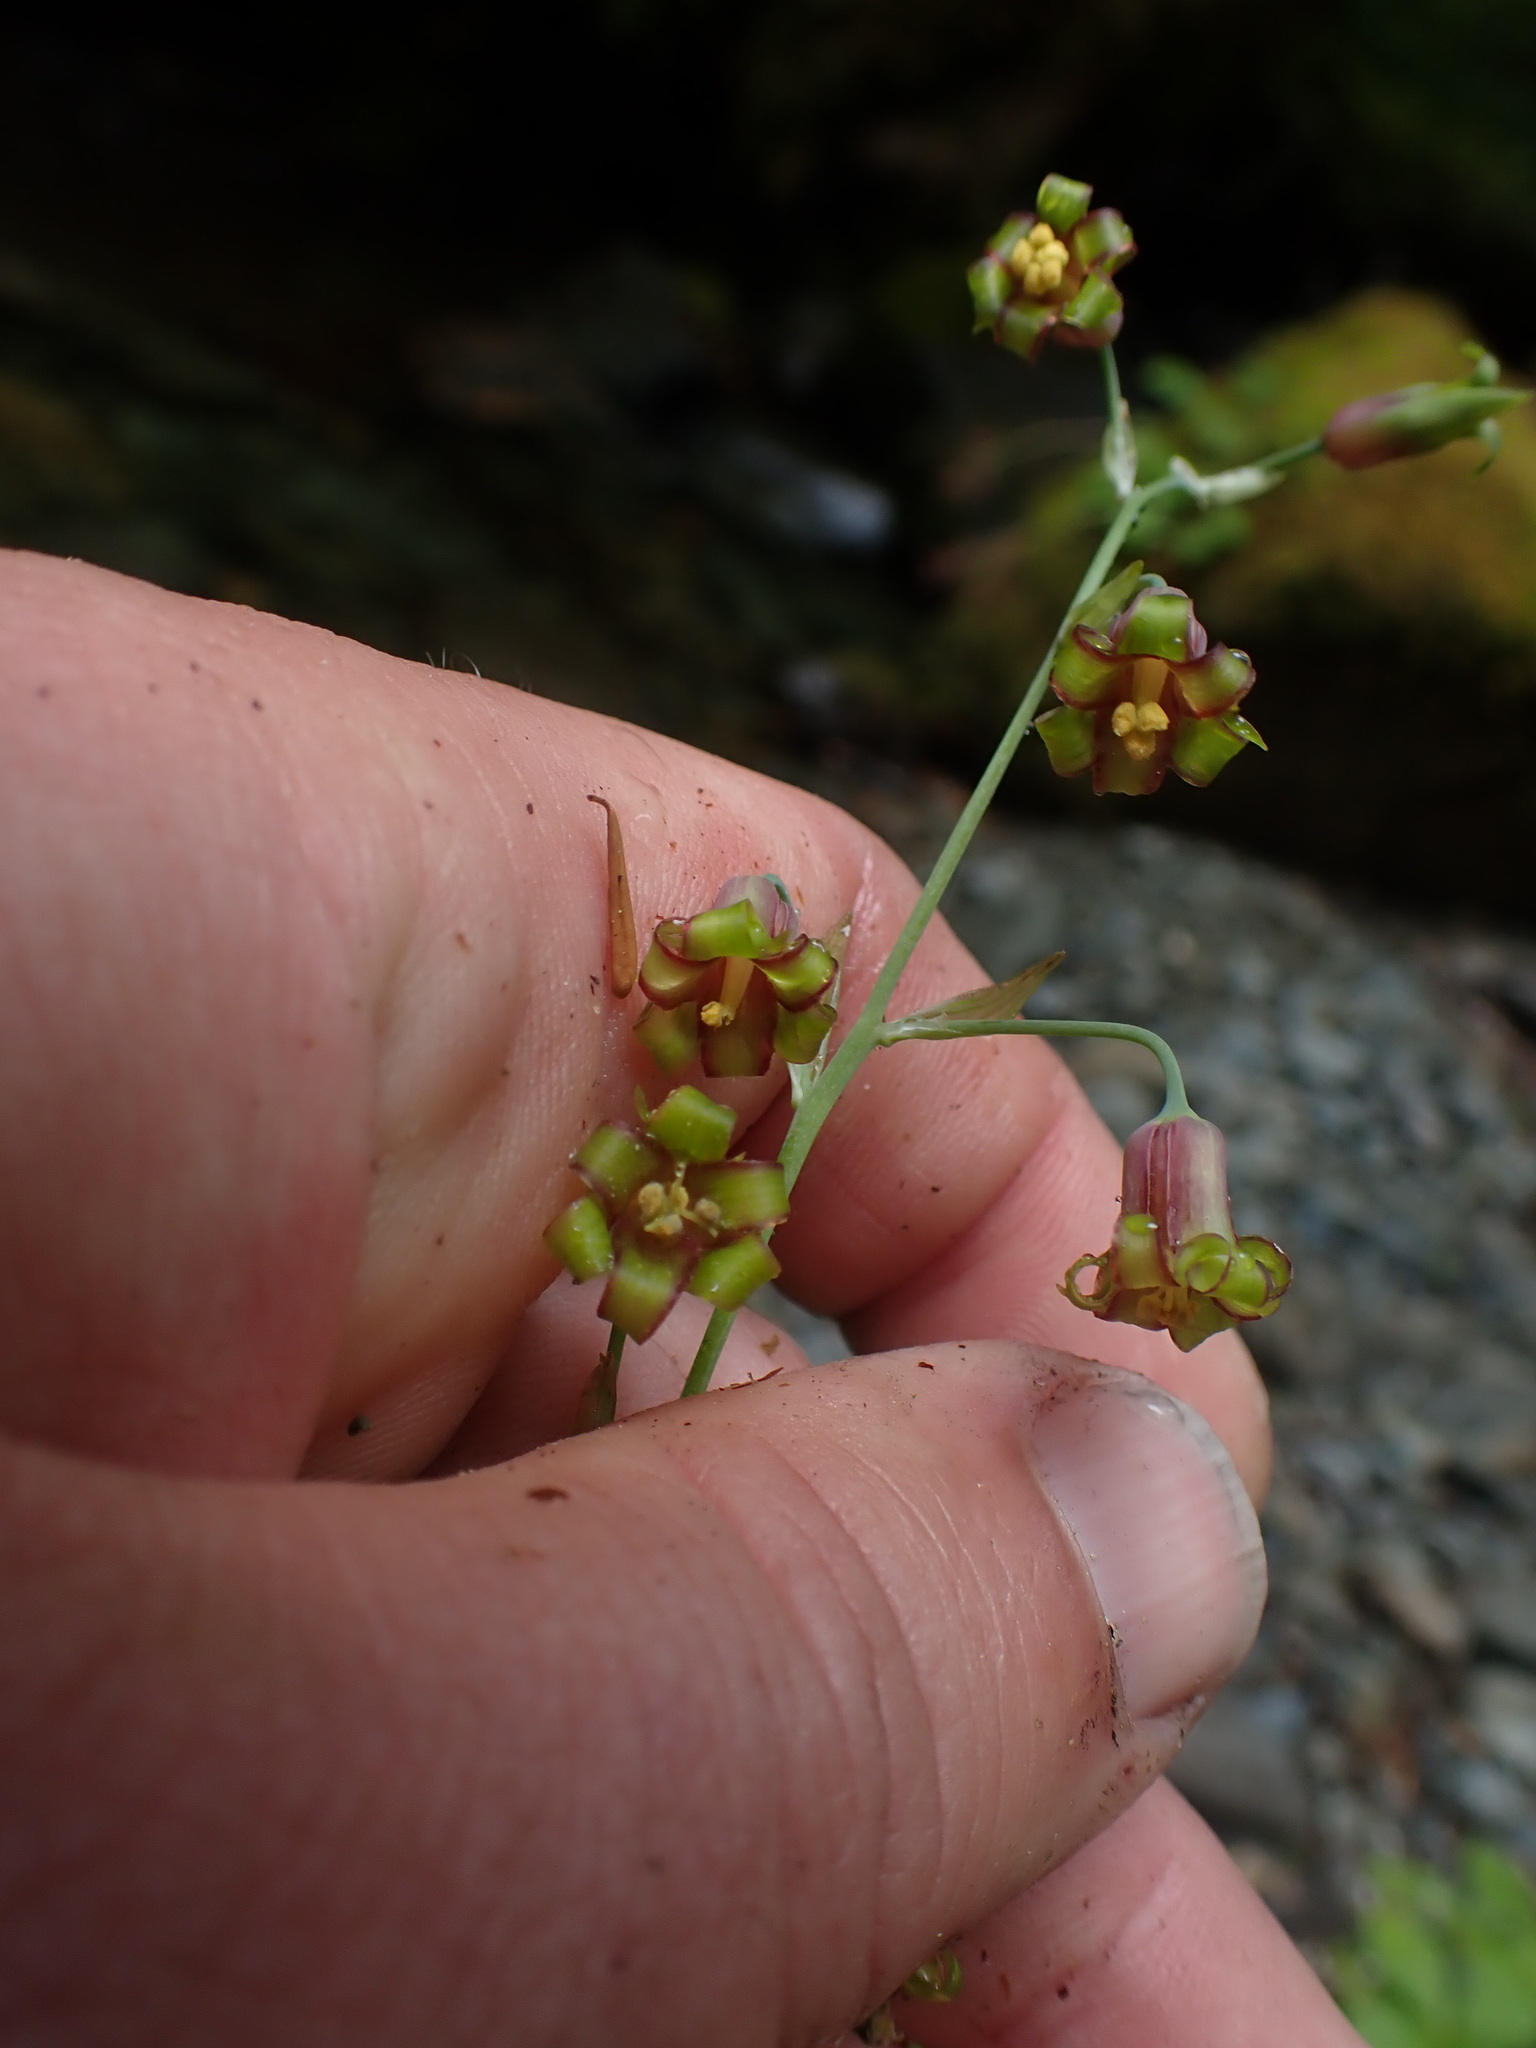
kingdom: Plantae
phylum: Tracheophyta
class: Liliopsida
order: Liliales
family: Melanthiaceae
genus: Anticlea
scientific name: Anticlea occidentalis
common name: Bronze-bells
